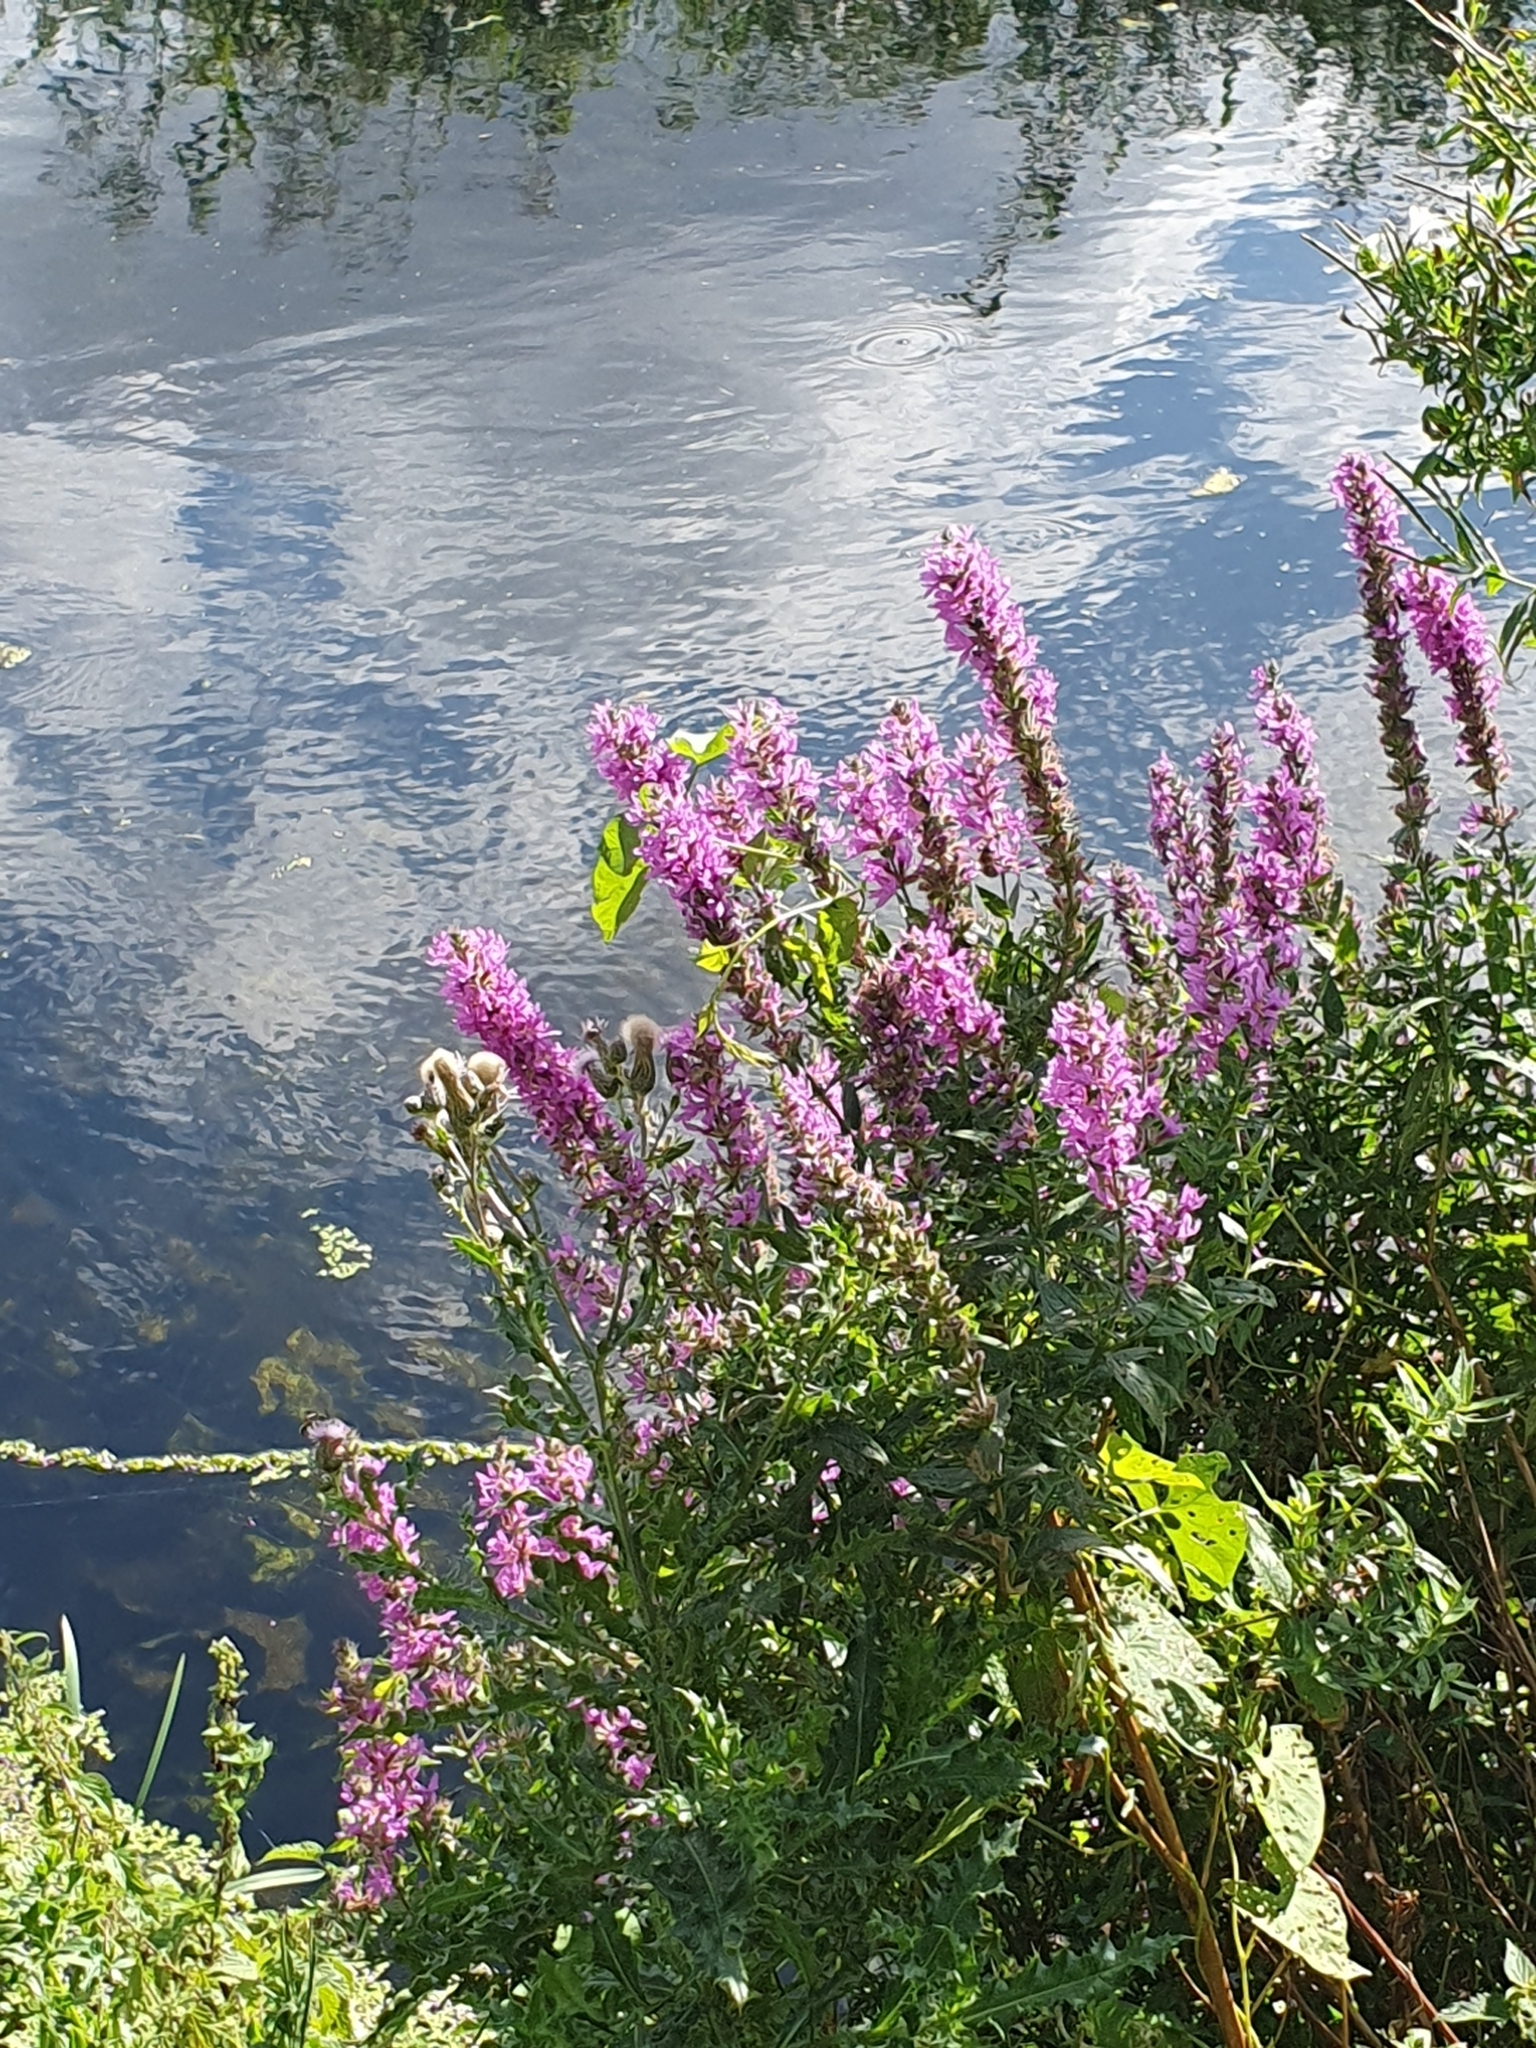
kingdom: Plantae
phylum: Tracheophyta
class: Magnoliopsida
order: Myrtales
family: Lythraceae
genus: Lythrum
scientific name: Lythrum salicaria
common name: Purple loosestrife
